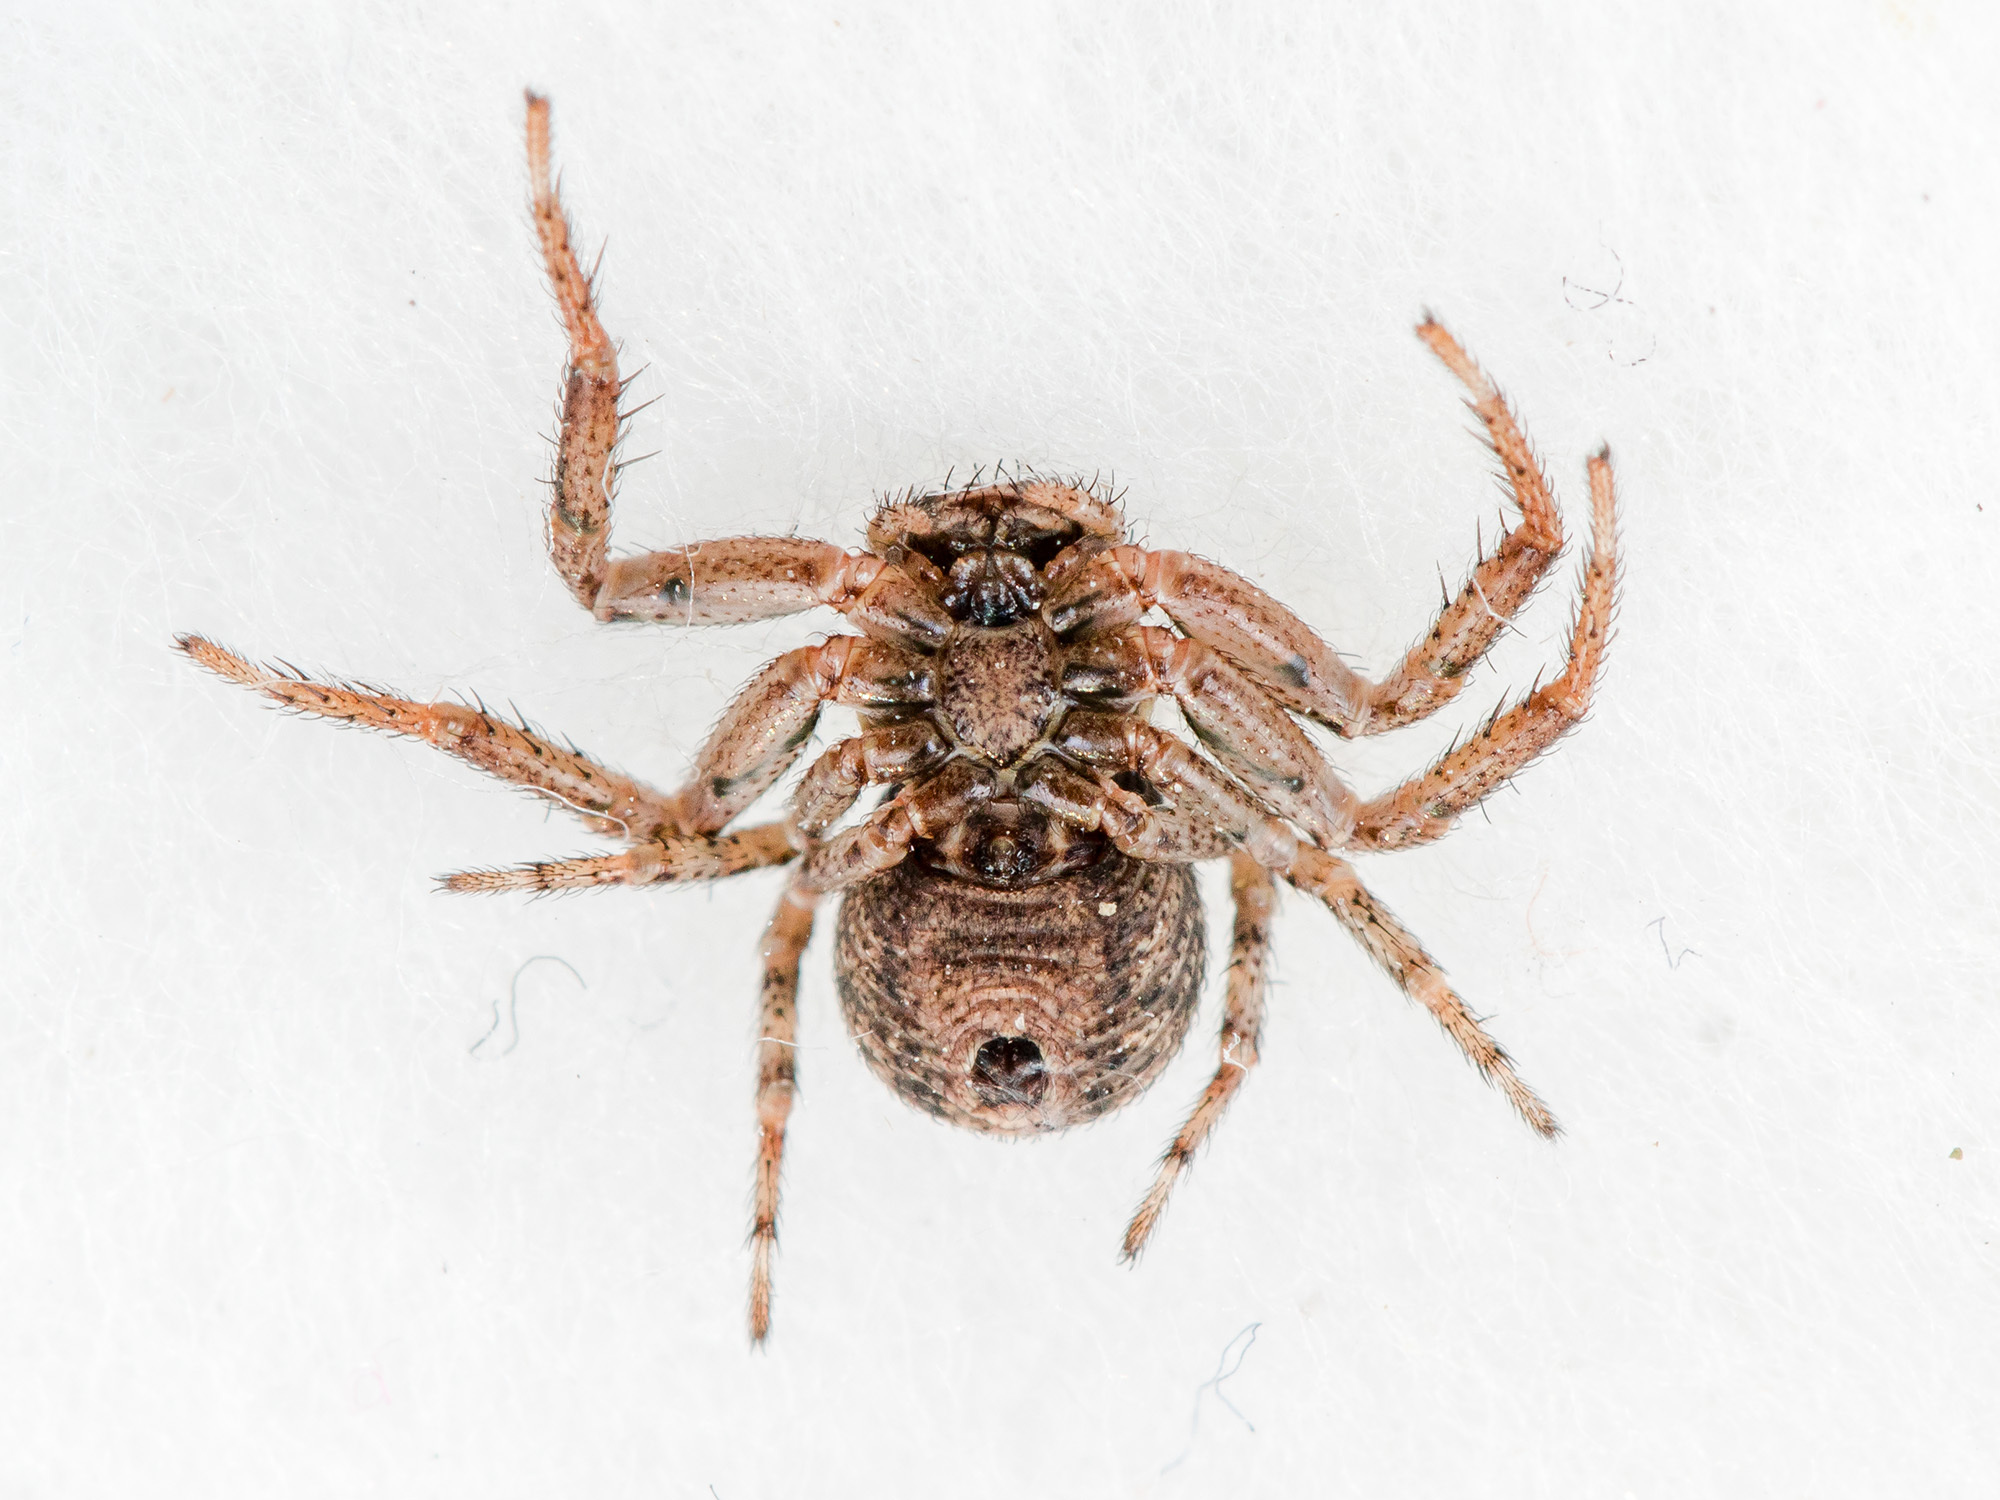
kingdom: Animalia
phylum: Arthropoda
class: Arachnida
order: Araneae
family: Thomisidae
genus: Psammitis
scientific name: Psammitis minor
